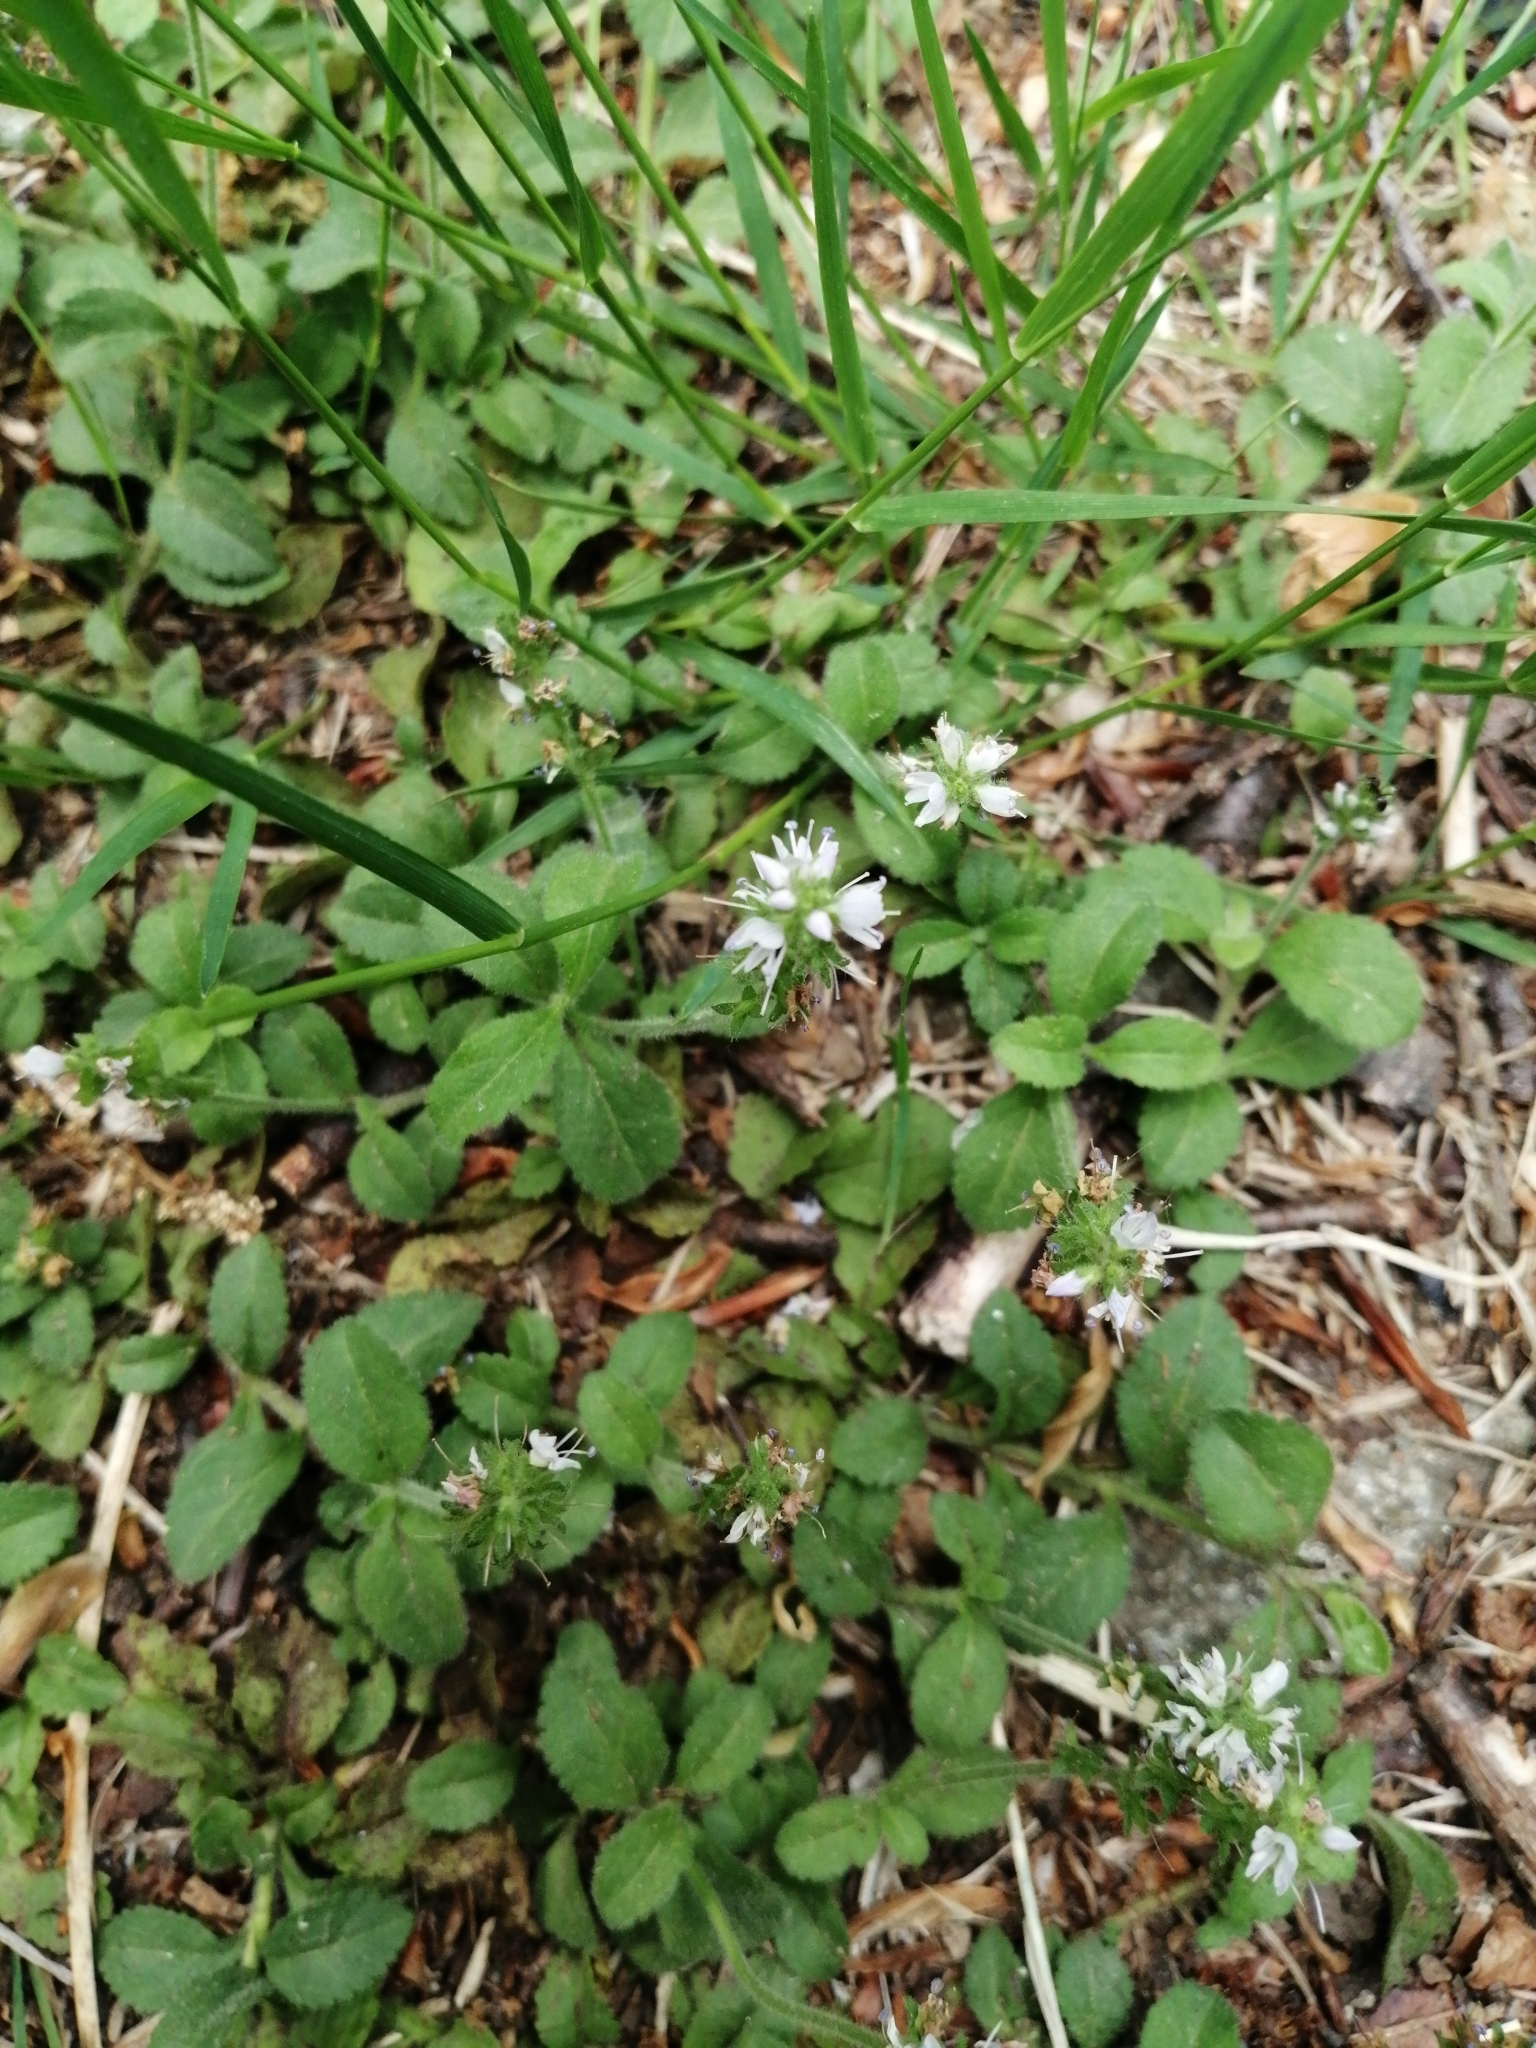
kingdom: Plantae
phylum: Tracheophyta
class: Magnoliopsida
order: Lamiales
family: Plantaginaceae
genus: Veronica
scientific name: Veronica officinalis
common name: Common speedwell
